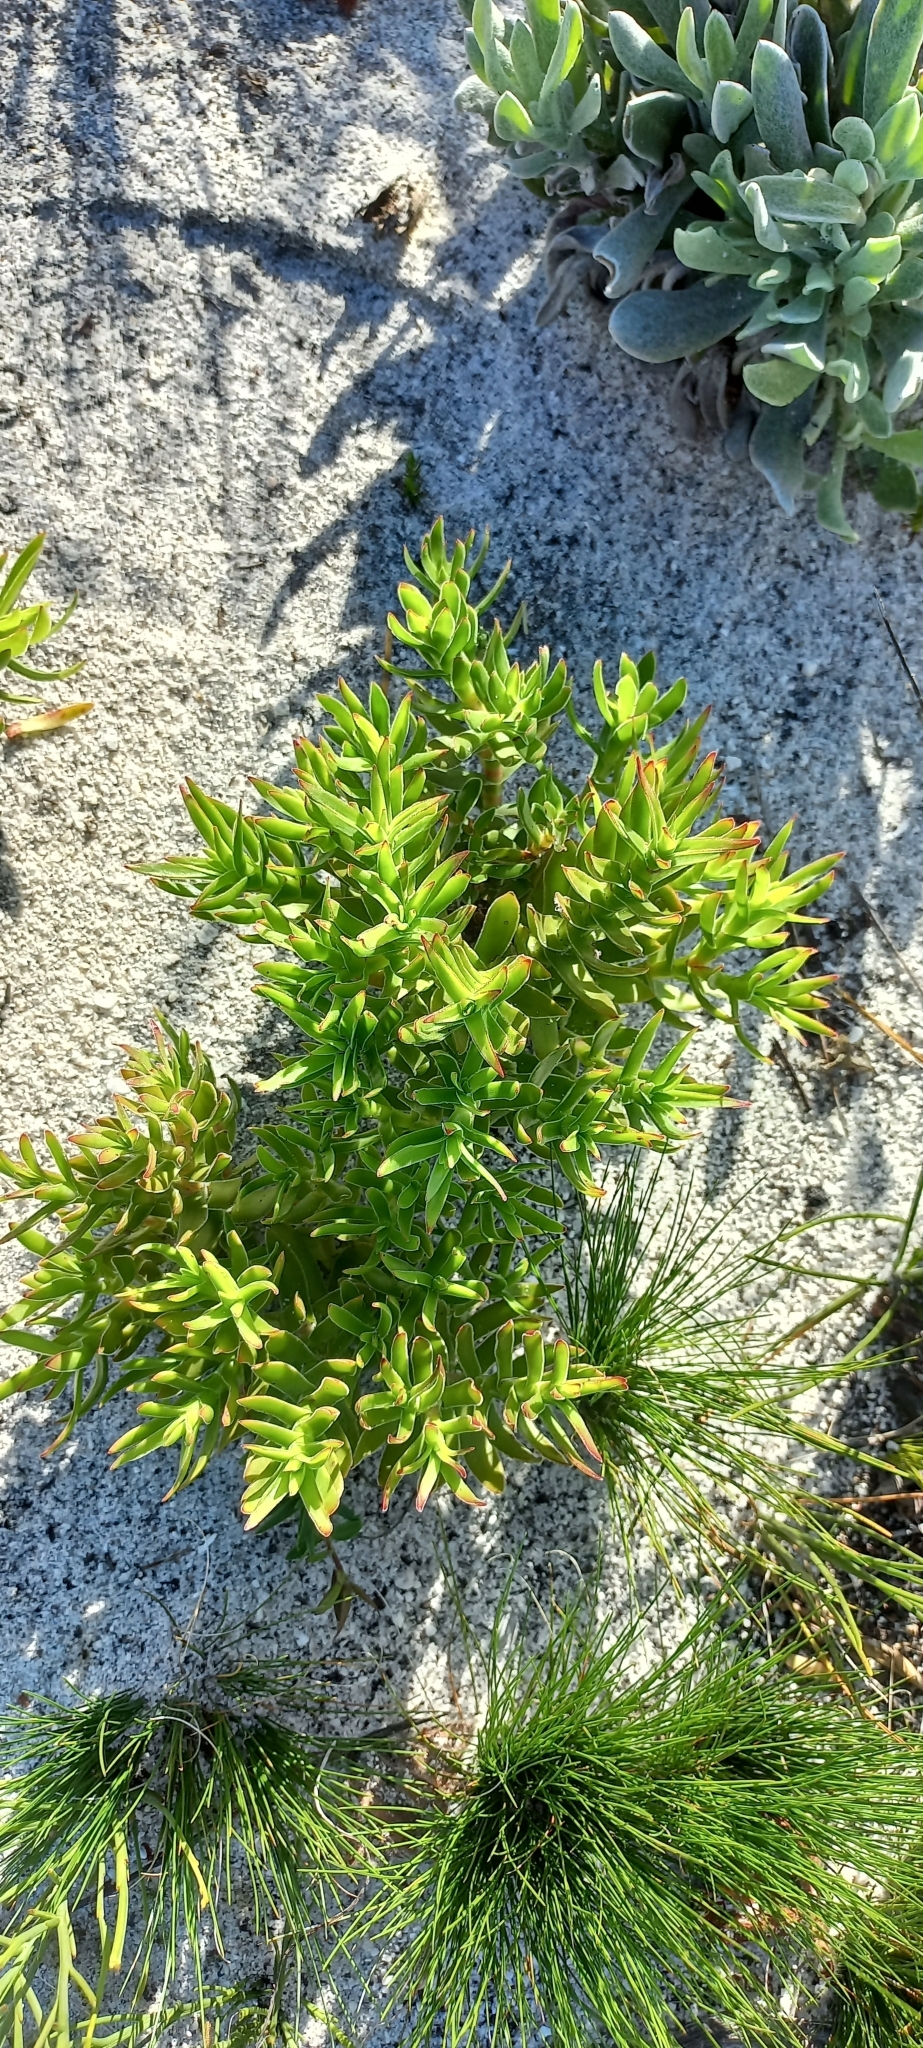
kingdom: Plantae
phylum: Tracheophyta
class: Magnoliopsida
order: Saxifragales
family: Crassulaceae
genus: Crassula
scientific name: Crassula fascicularis
